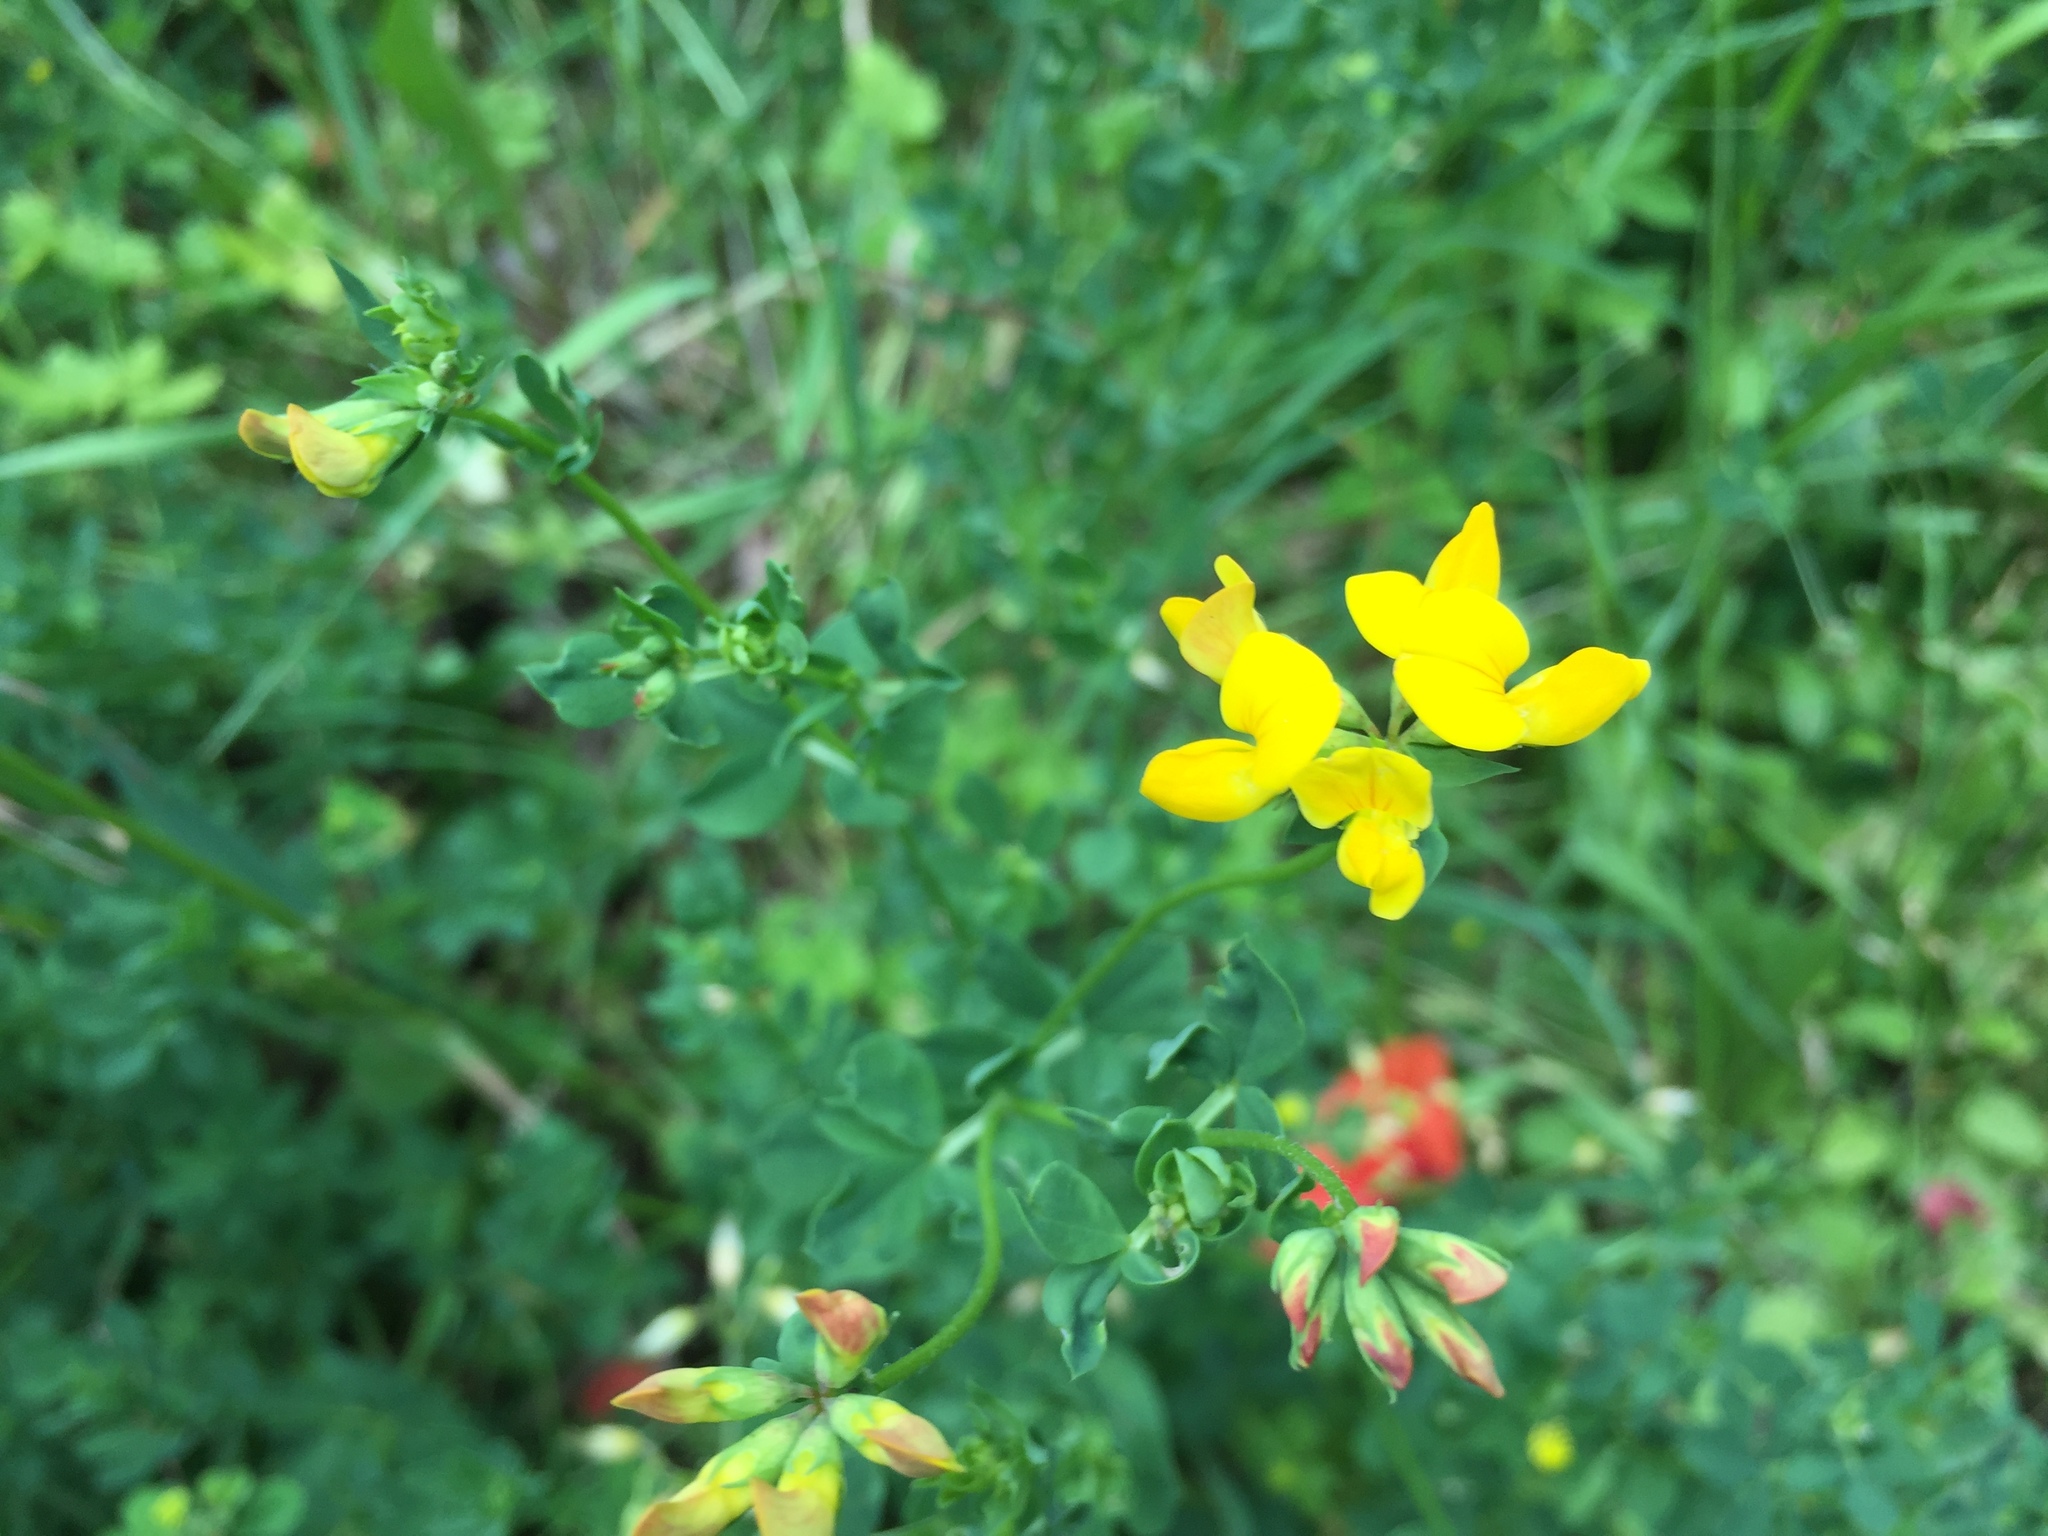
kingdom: Plantae
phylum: Tracheophyta
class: Magnoliopsida
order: Fabales
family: Fabaceae
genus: Lotus
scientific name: Lotus corniculatus
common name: Common bird's-foot-trefoil
